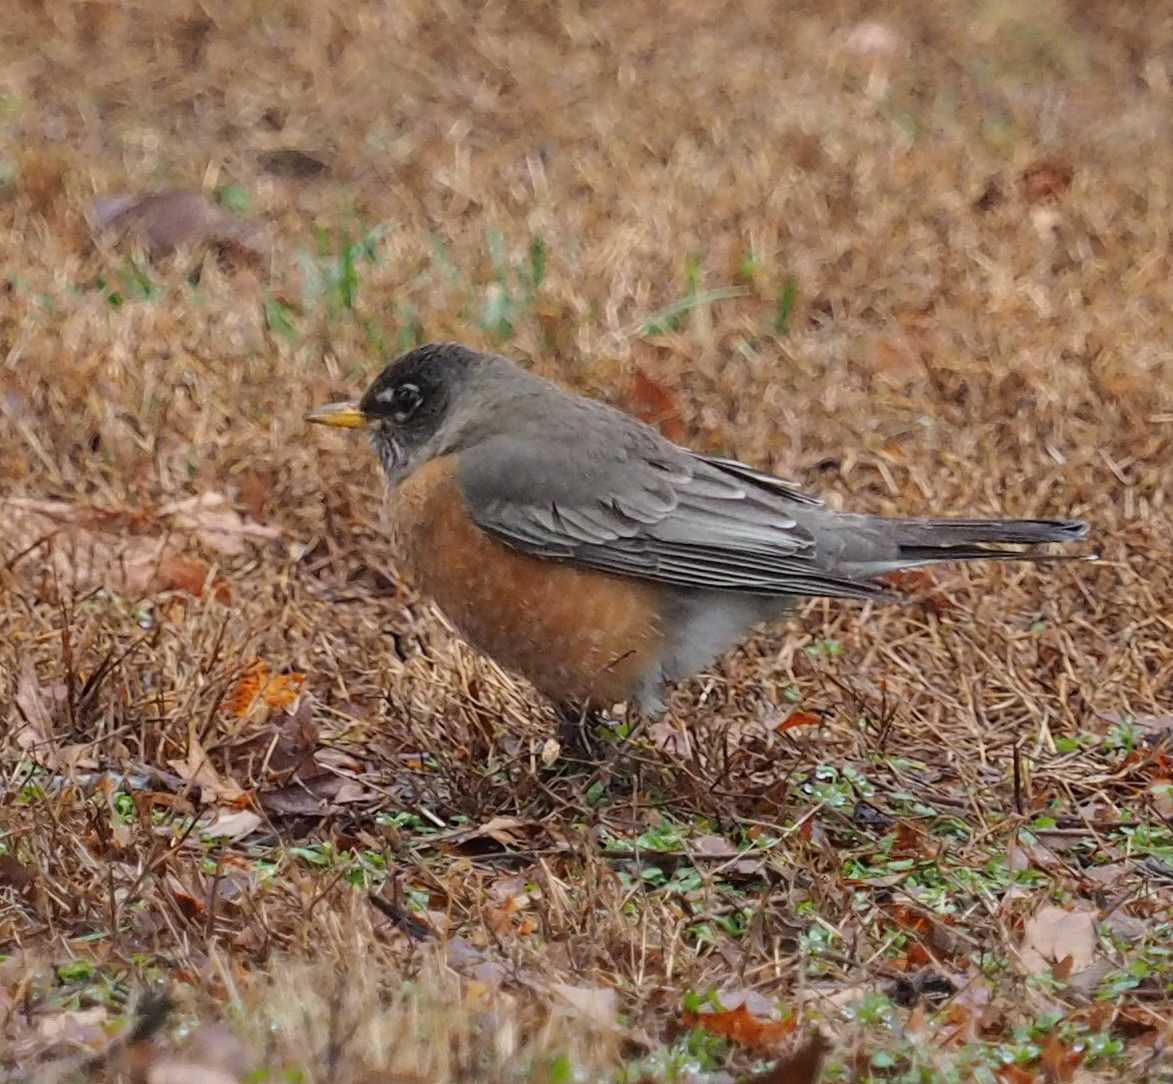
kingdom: Animalia
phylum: Chordata
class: Aves
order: Passeriformes
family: Turdidae
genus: Turdus
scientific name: Turdus migratorius
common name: American robin
